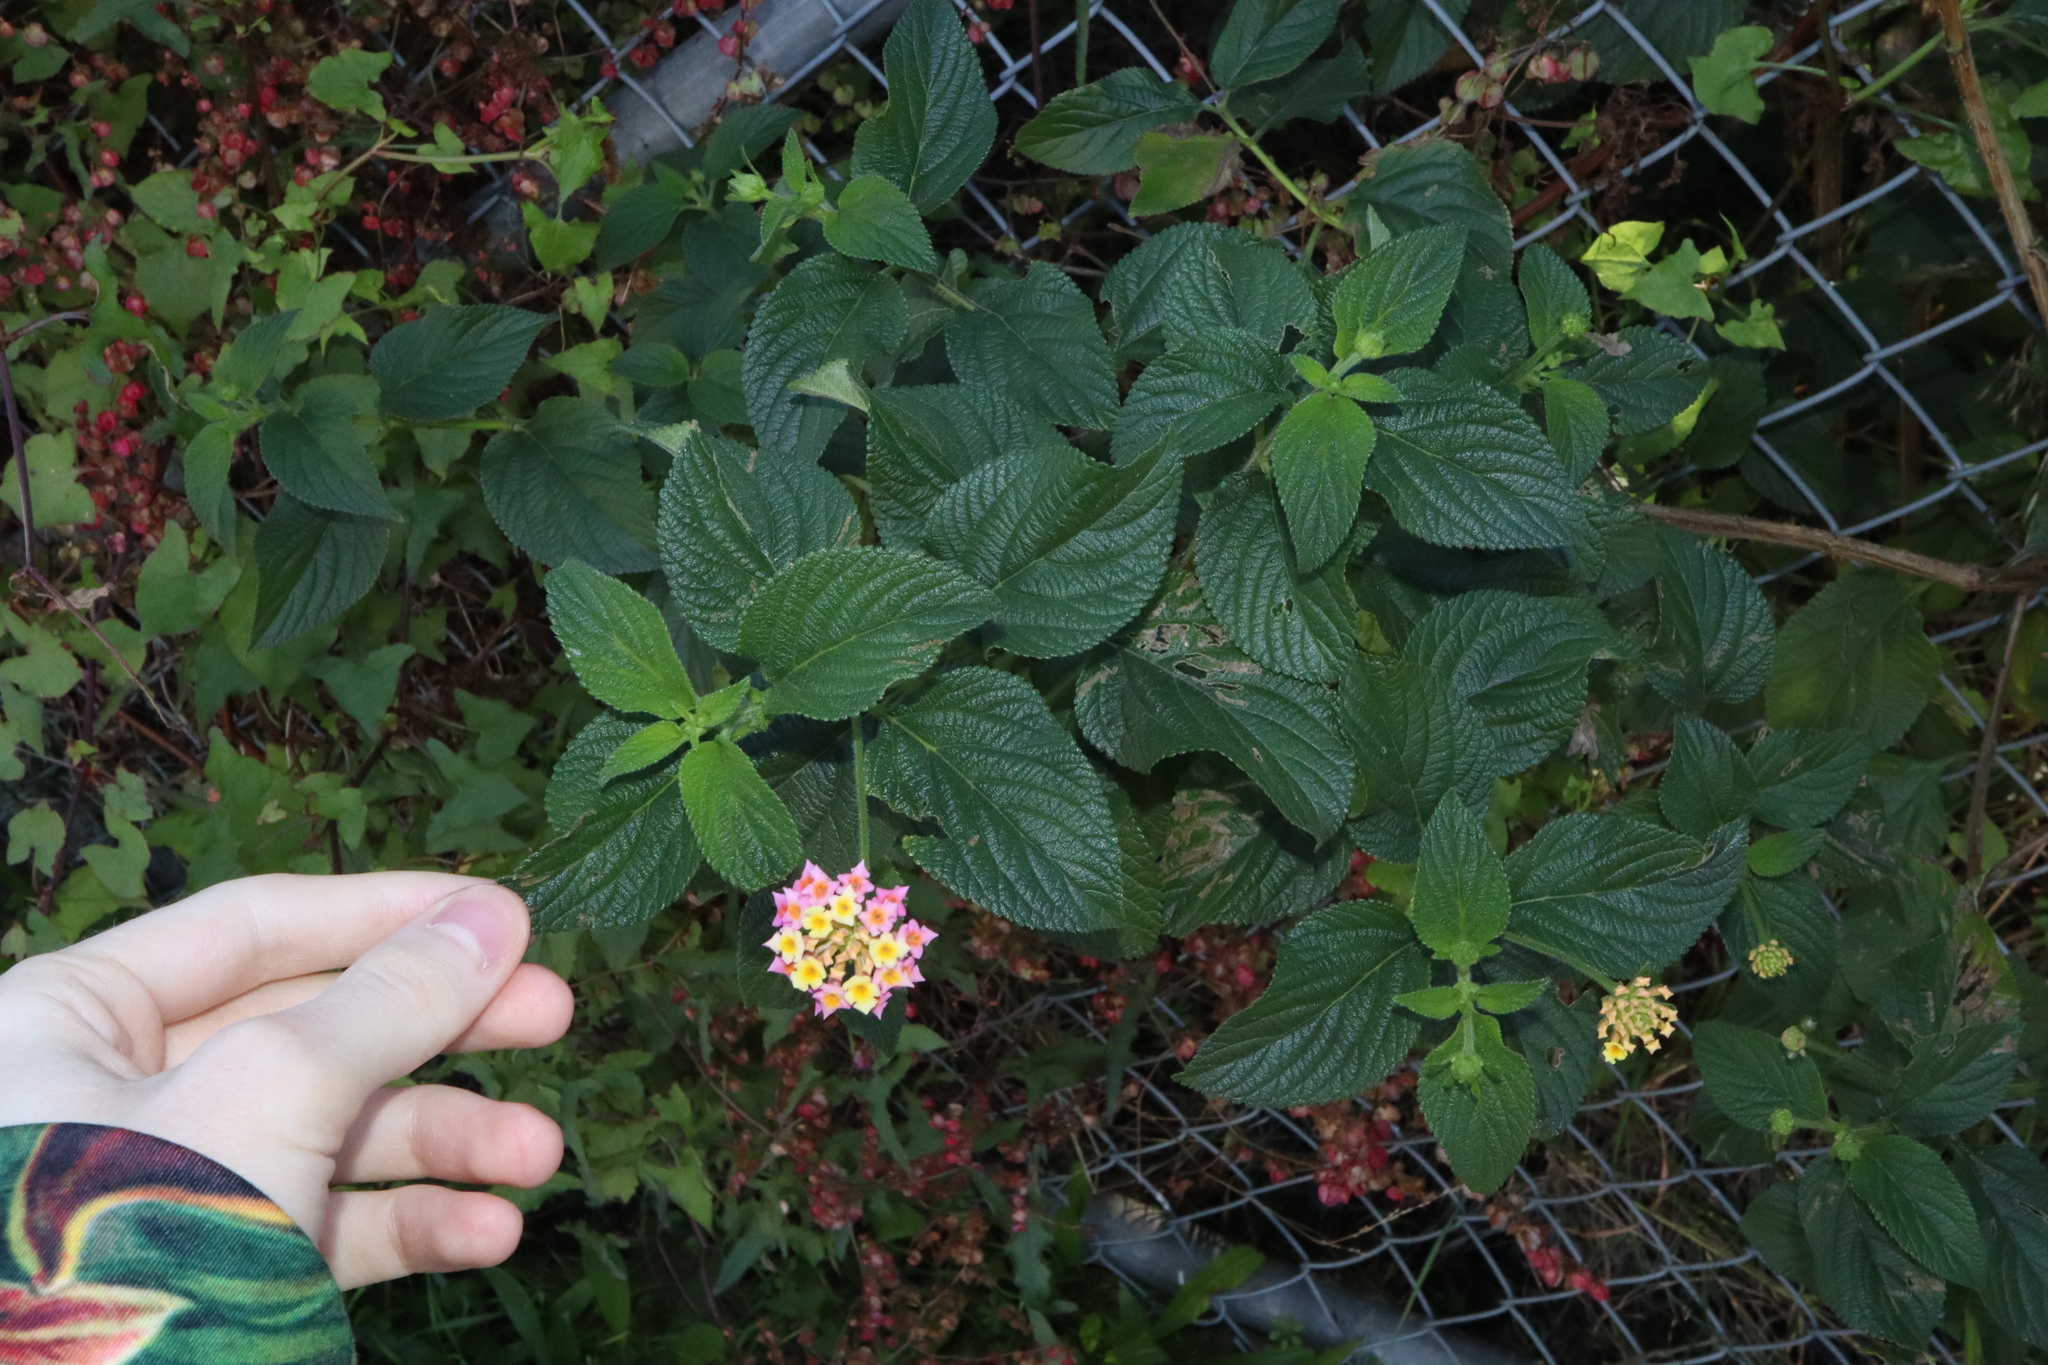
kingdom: Plantae
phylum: Tracheophyta
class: Magnoliopsida
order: Lamiales
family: Verbenaceae
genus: Lantana
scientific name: Lantana camara
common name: Lantana
